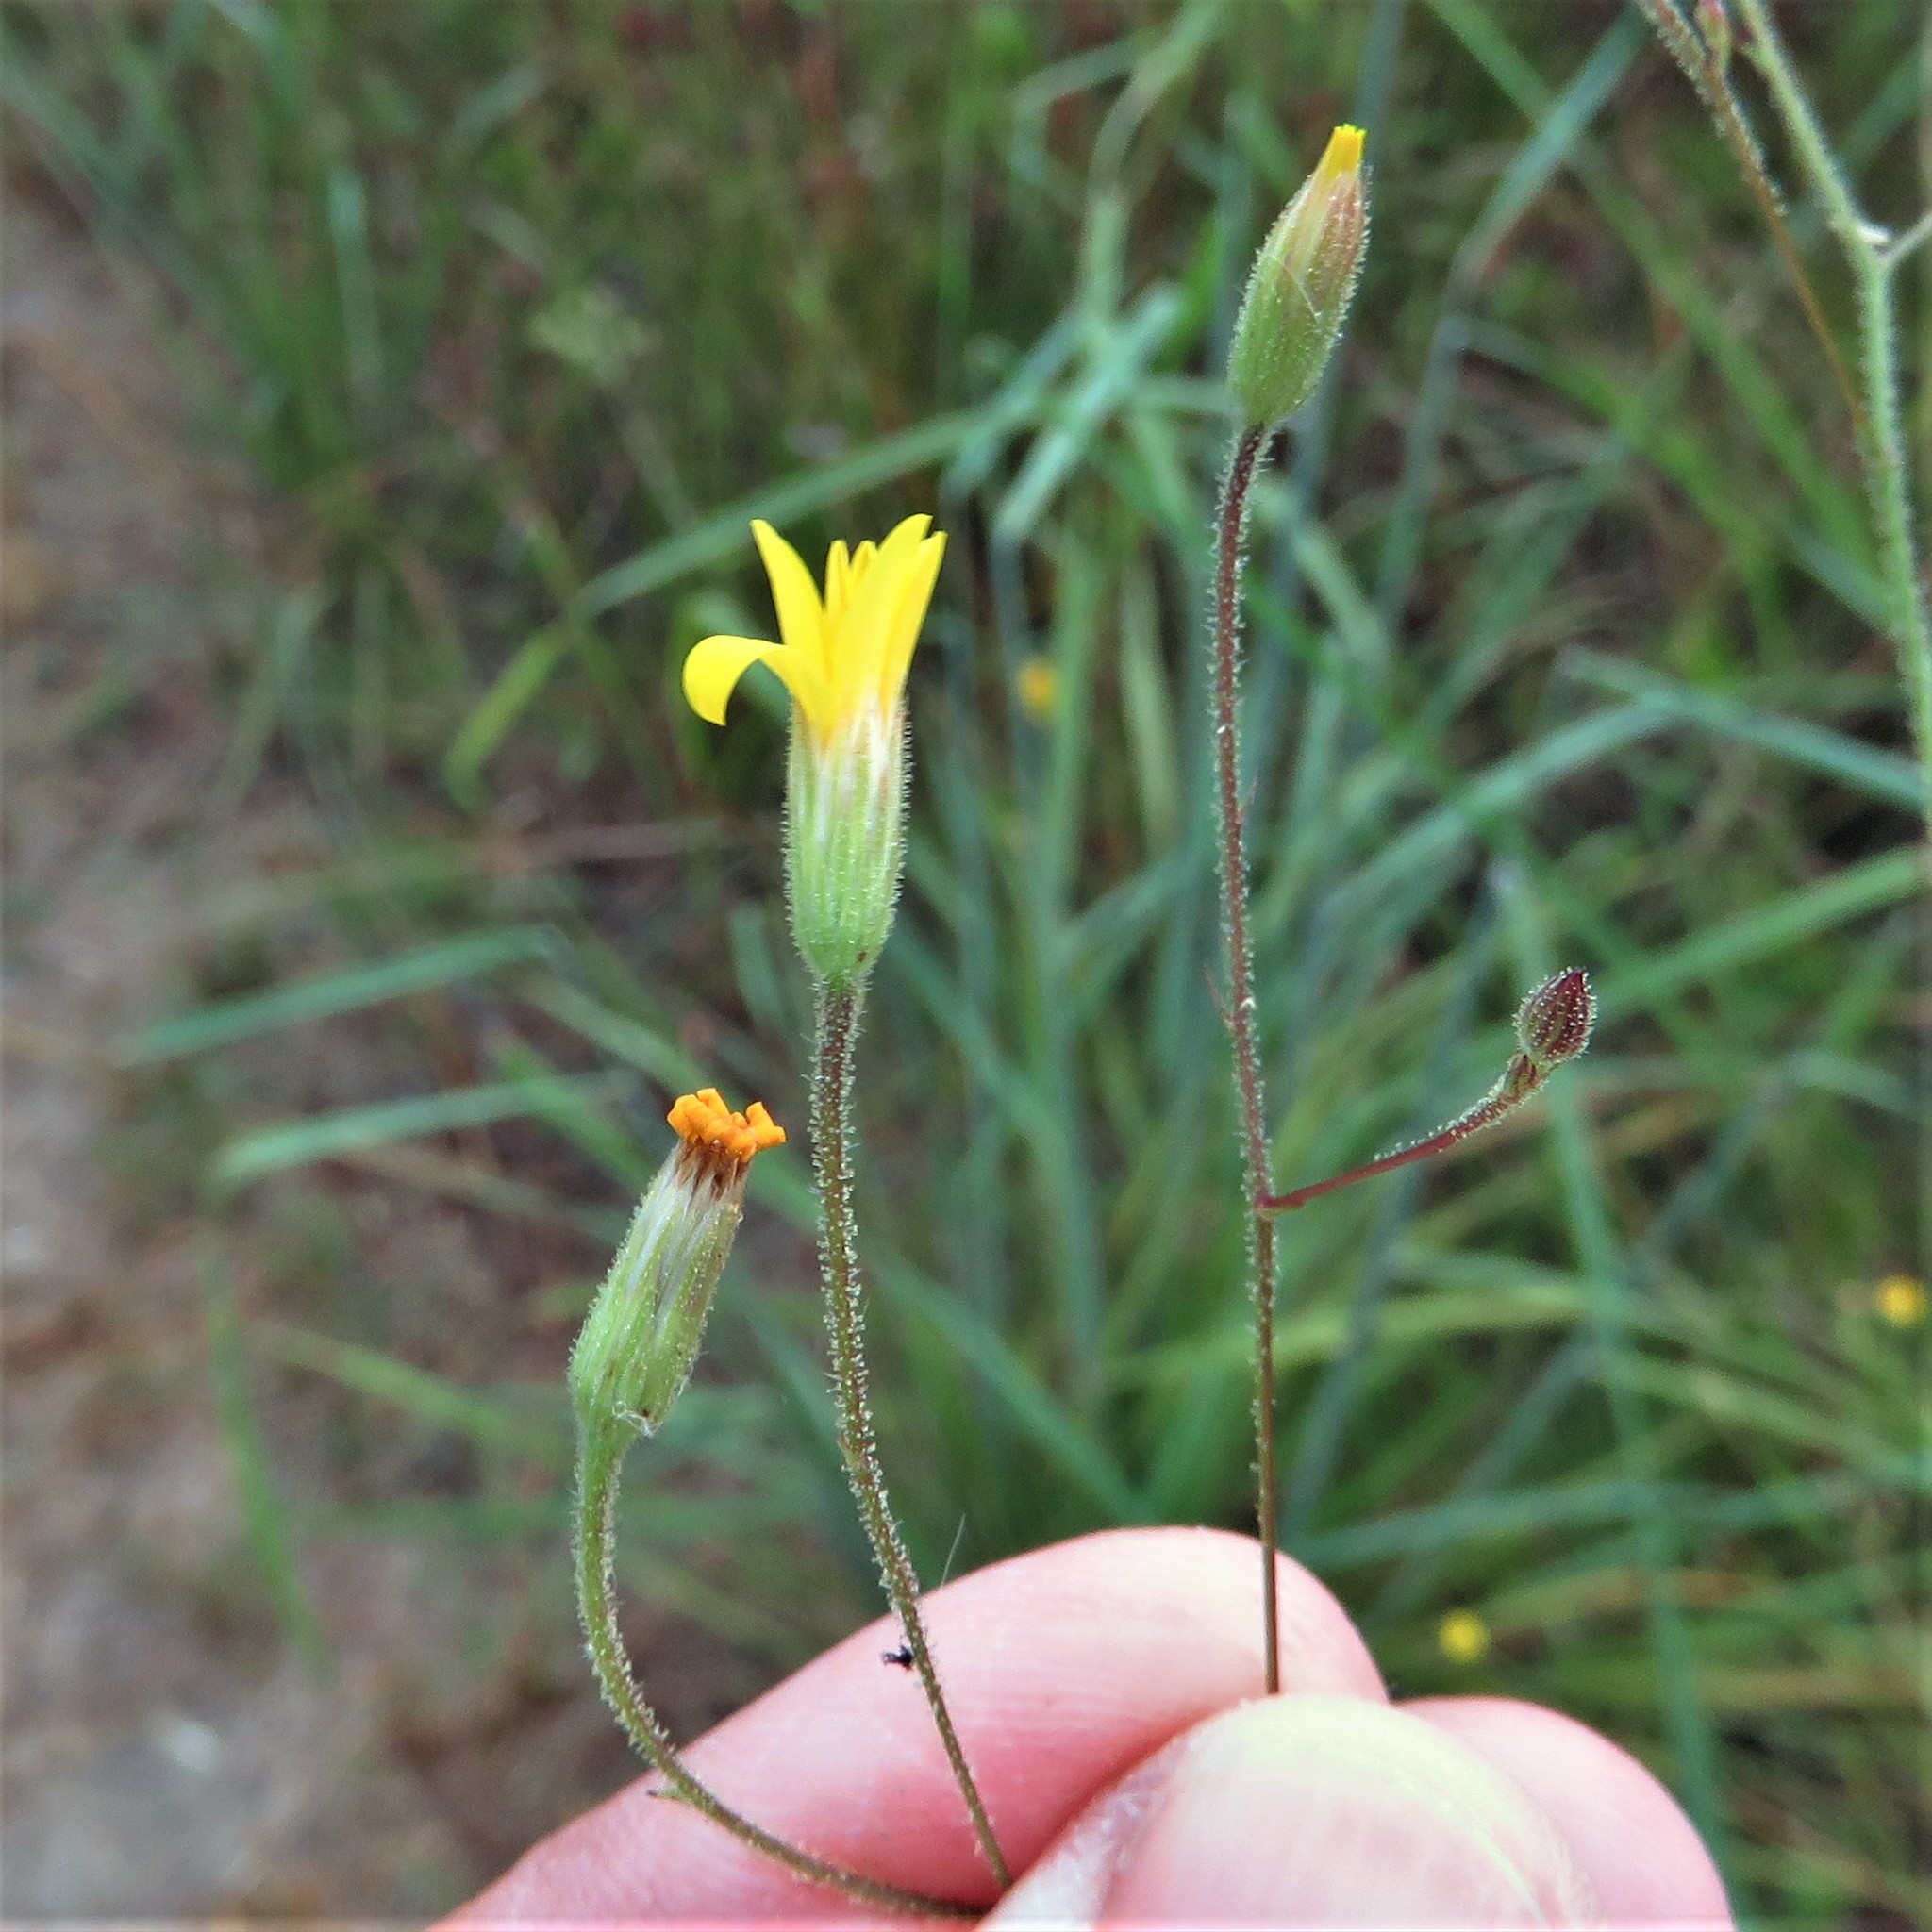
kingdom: Plantae
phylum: Tracheophyta
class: Magnoliopsida
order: Asterales
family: Asteraceae
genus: Croptilon
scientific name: Croptilon divaricatum
